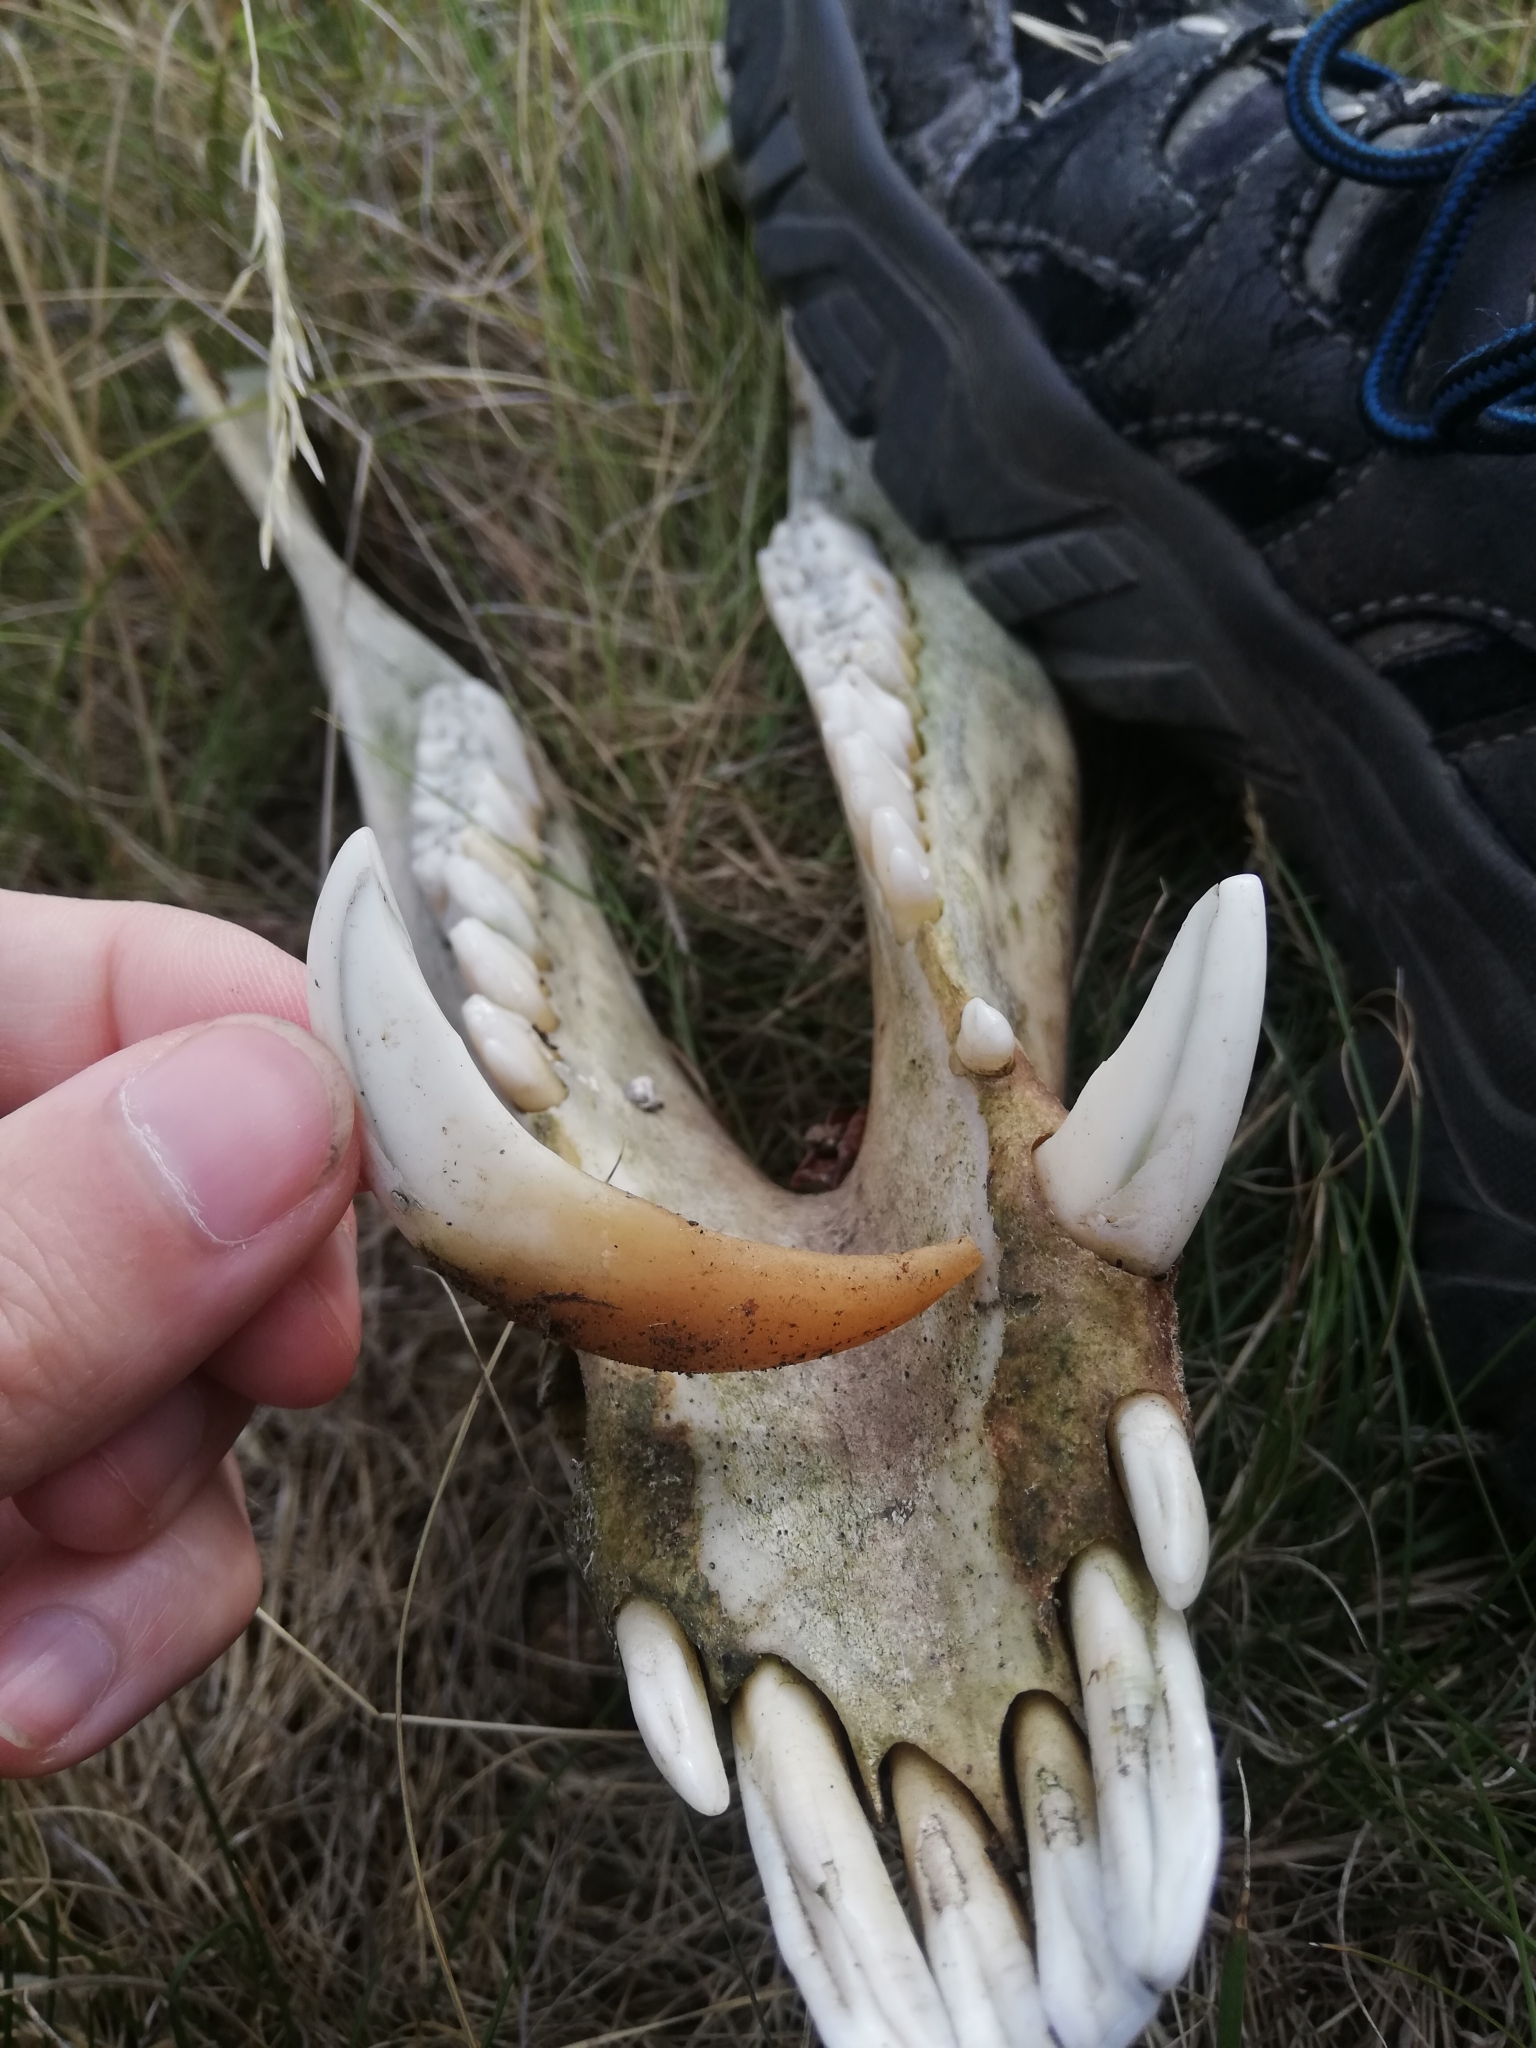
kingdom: Animalia
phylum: Chordata
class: Mammalia
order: Artiodactyla
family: Suidae
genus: Sus
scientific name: Sus scrofa
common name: Wild boar
